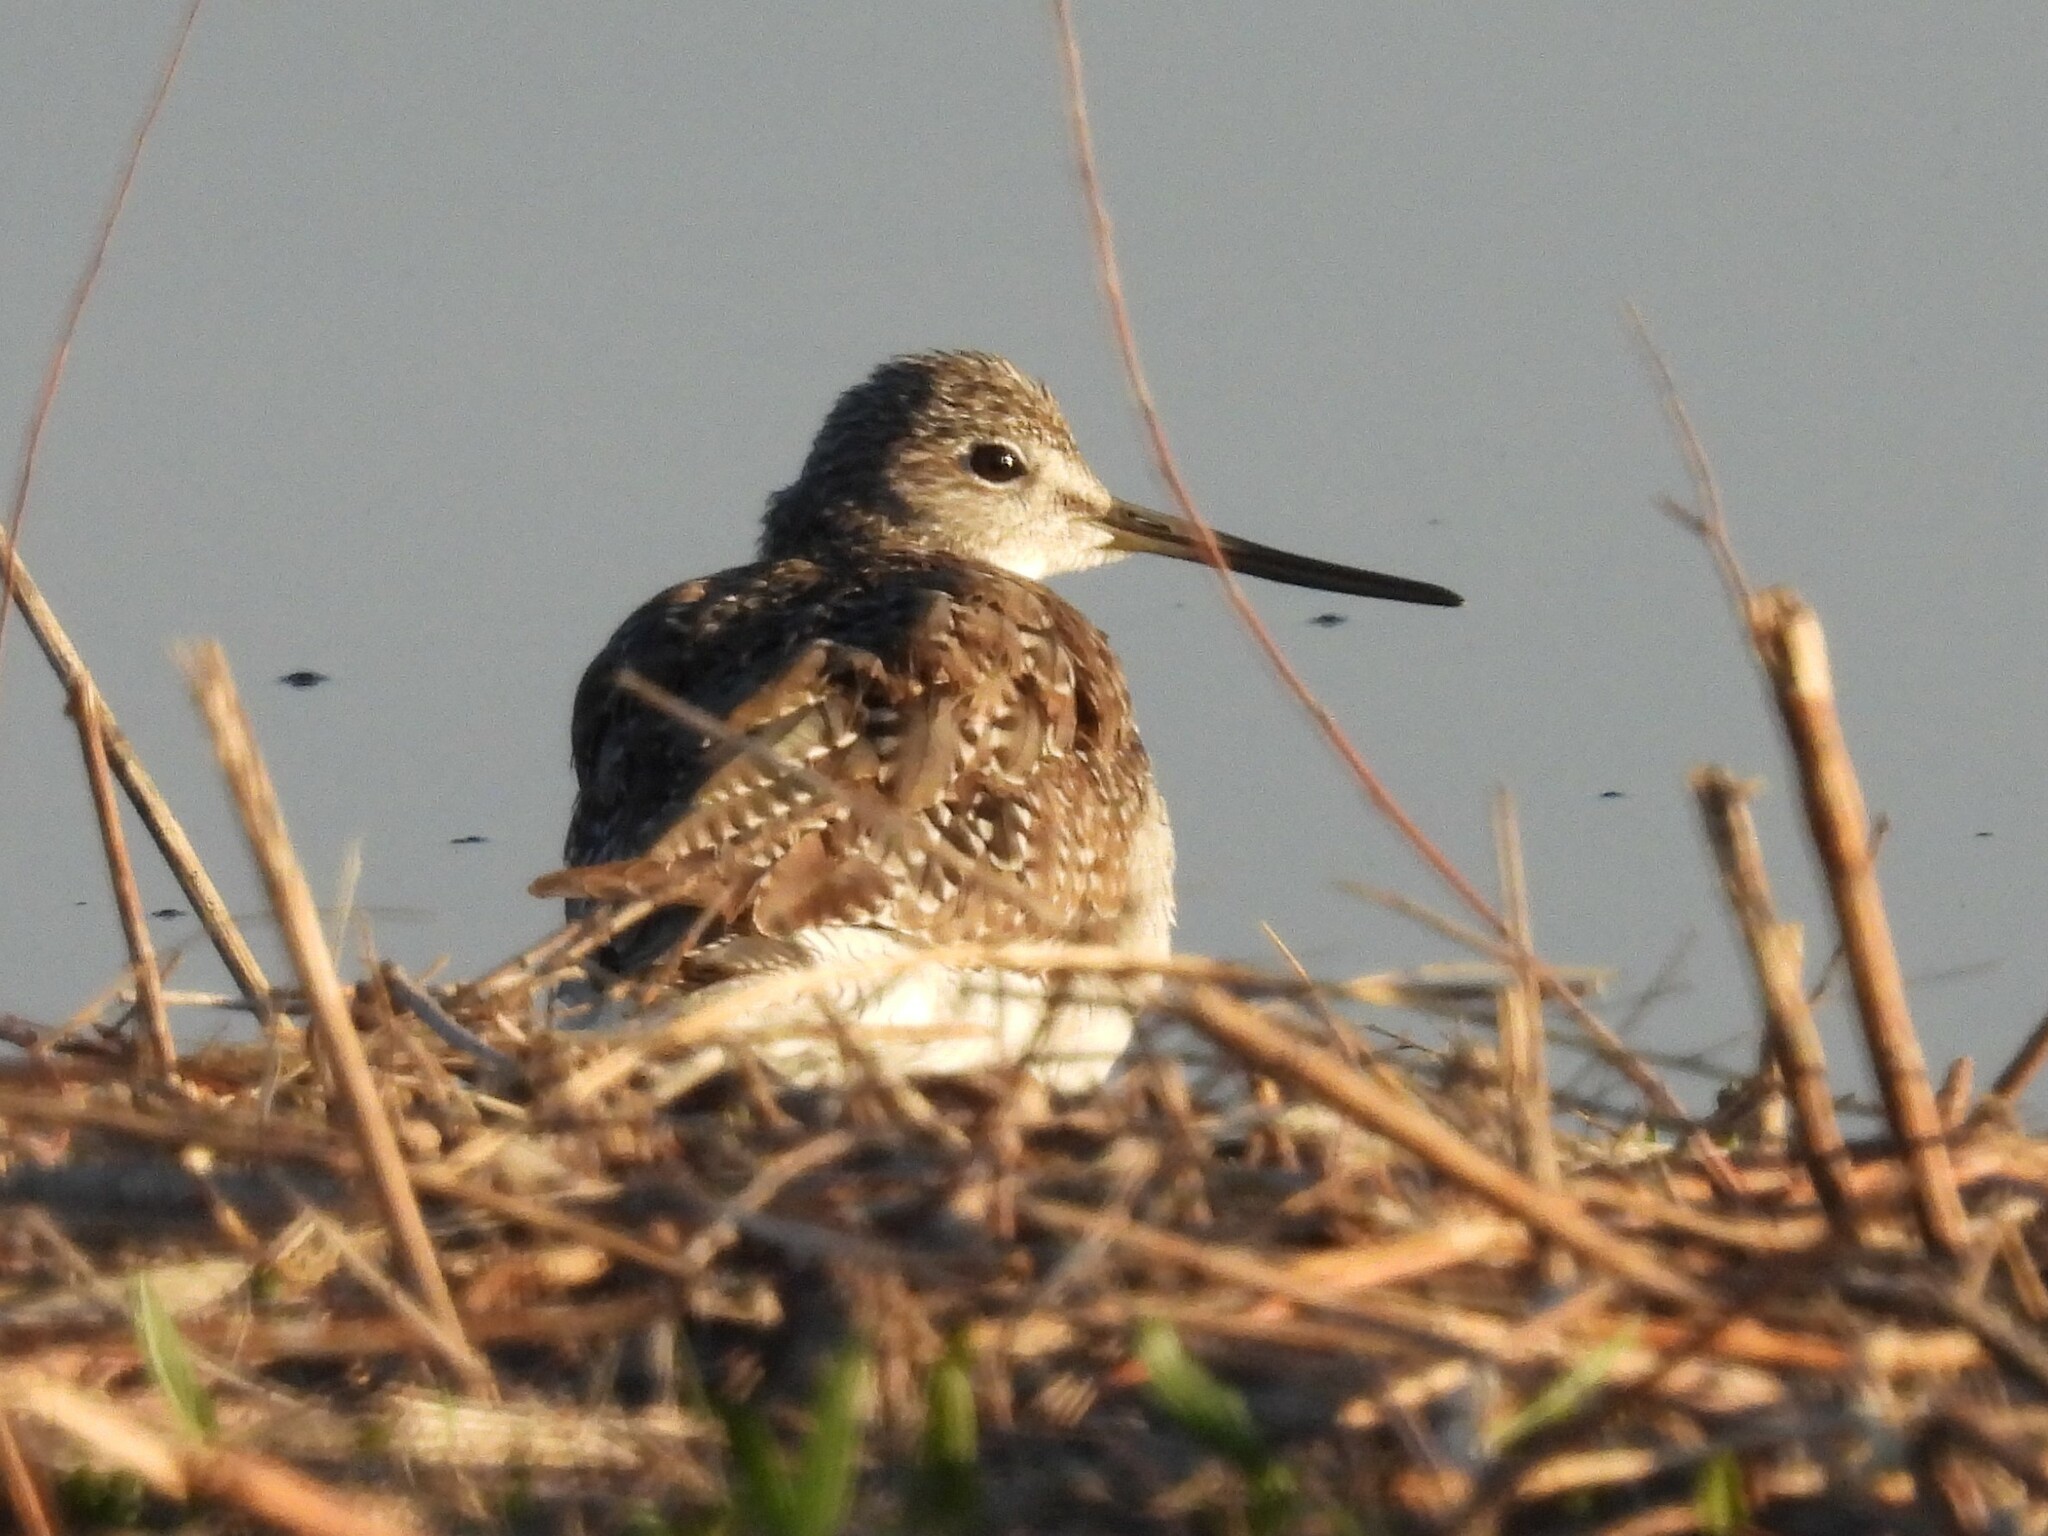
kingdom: Animalia
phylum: Chordata
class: Aves
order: Charadriiformes
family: Scolopacidae
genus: Tringa
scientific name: Tringa melanoleuca
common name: Greater yellowlegs
